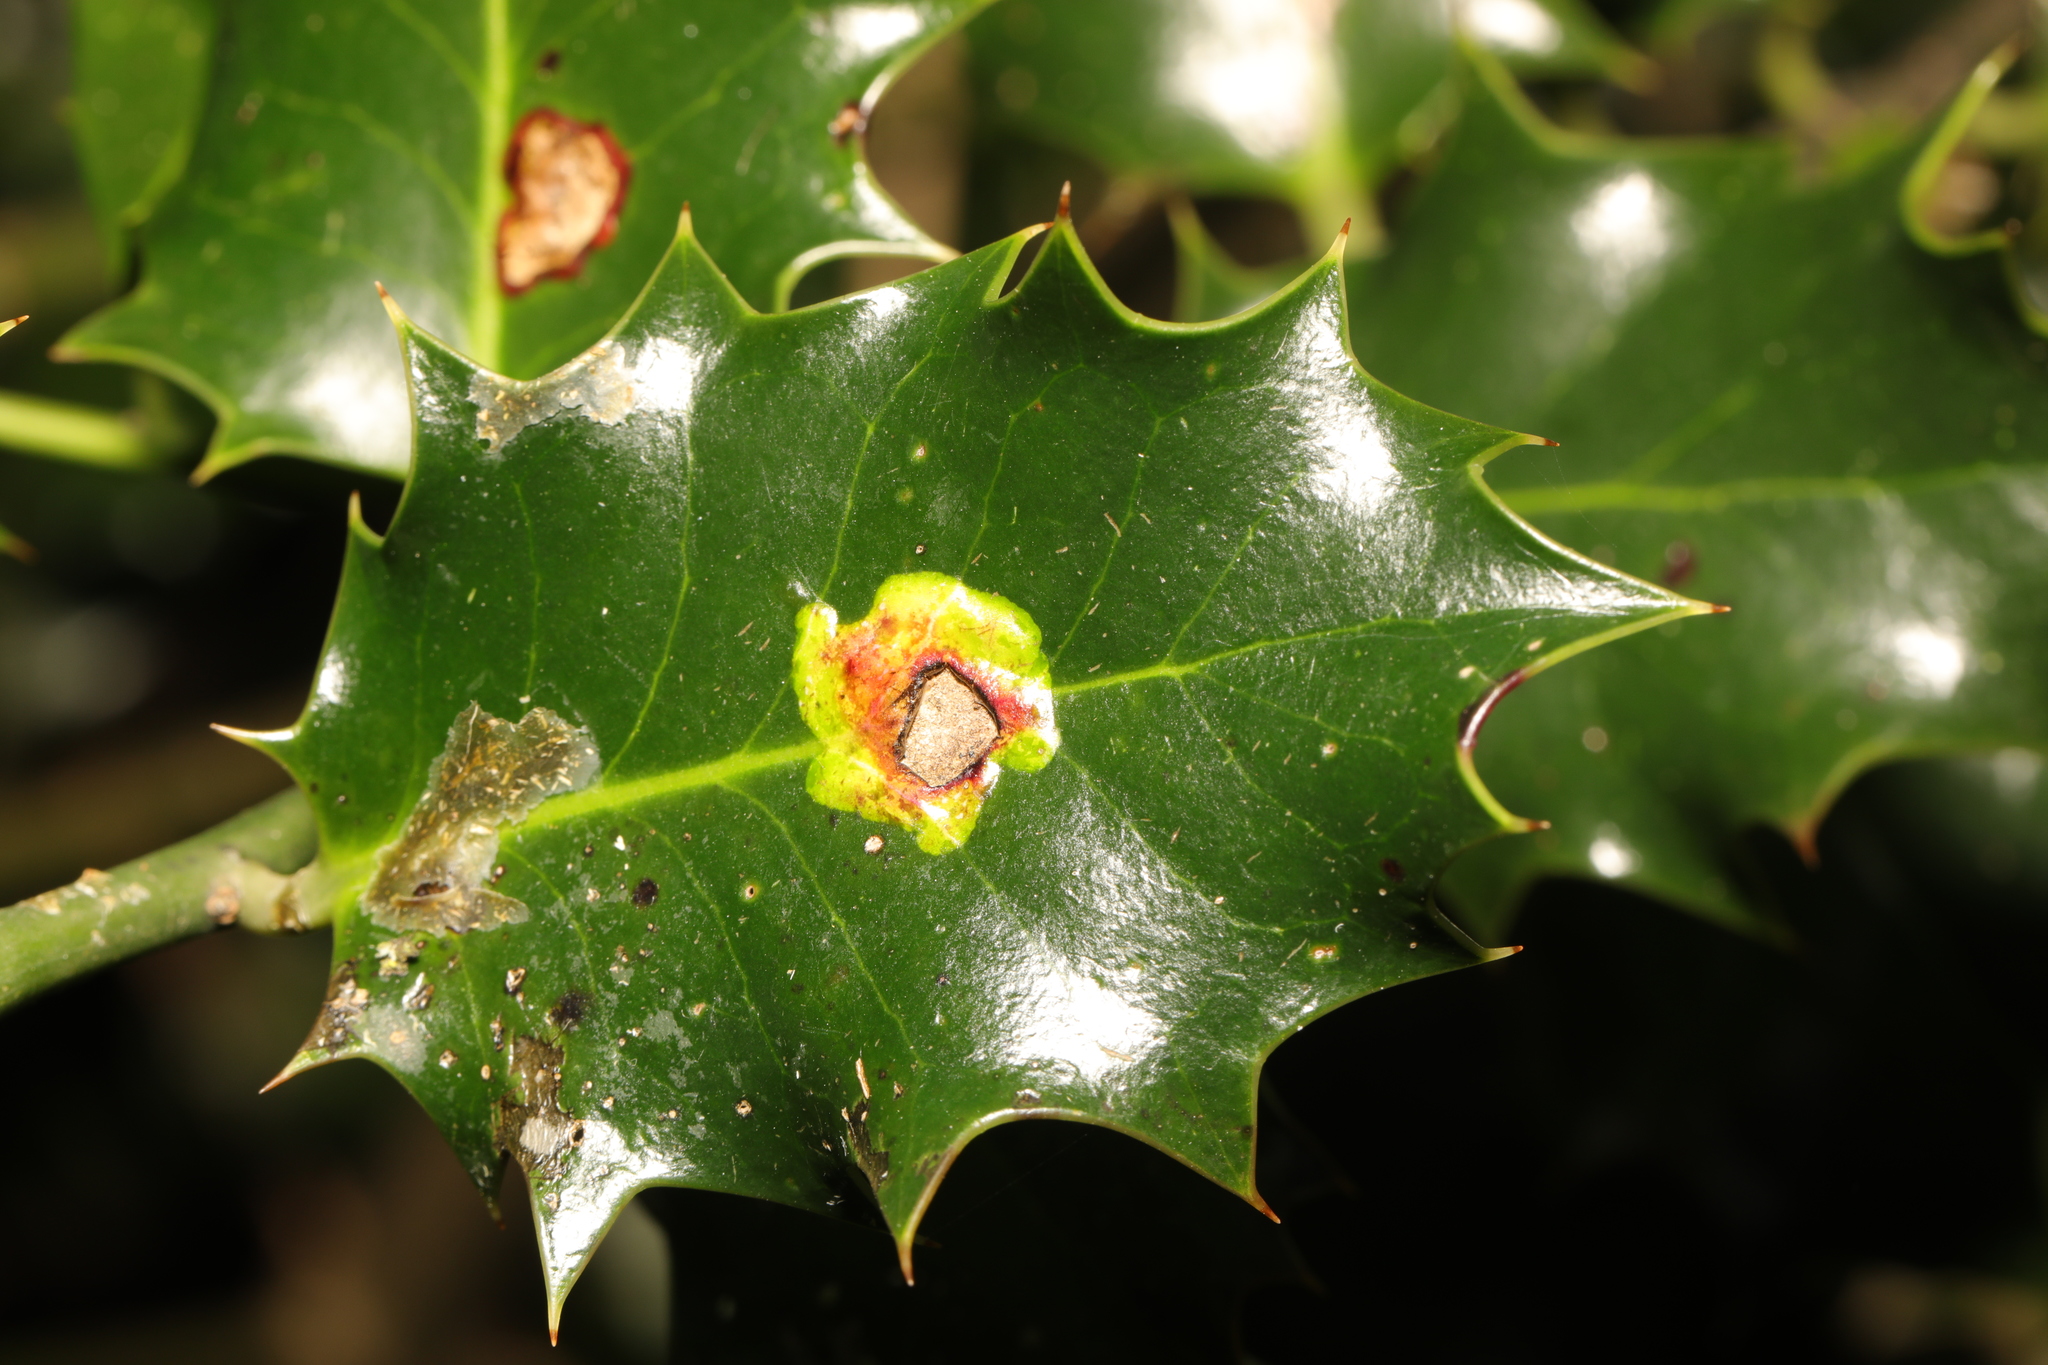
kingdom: Animalia
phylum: Arthropoda
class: Insecta
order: Diptera
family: Agromyzidae
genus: Phytomyza
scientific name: Phytomyza ilicis
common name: Holly leafminer
